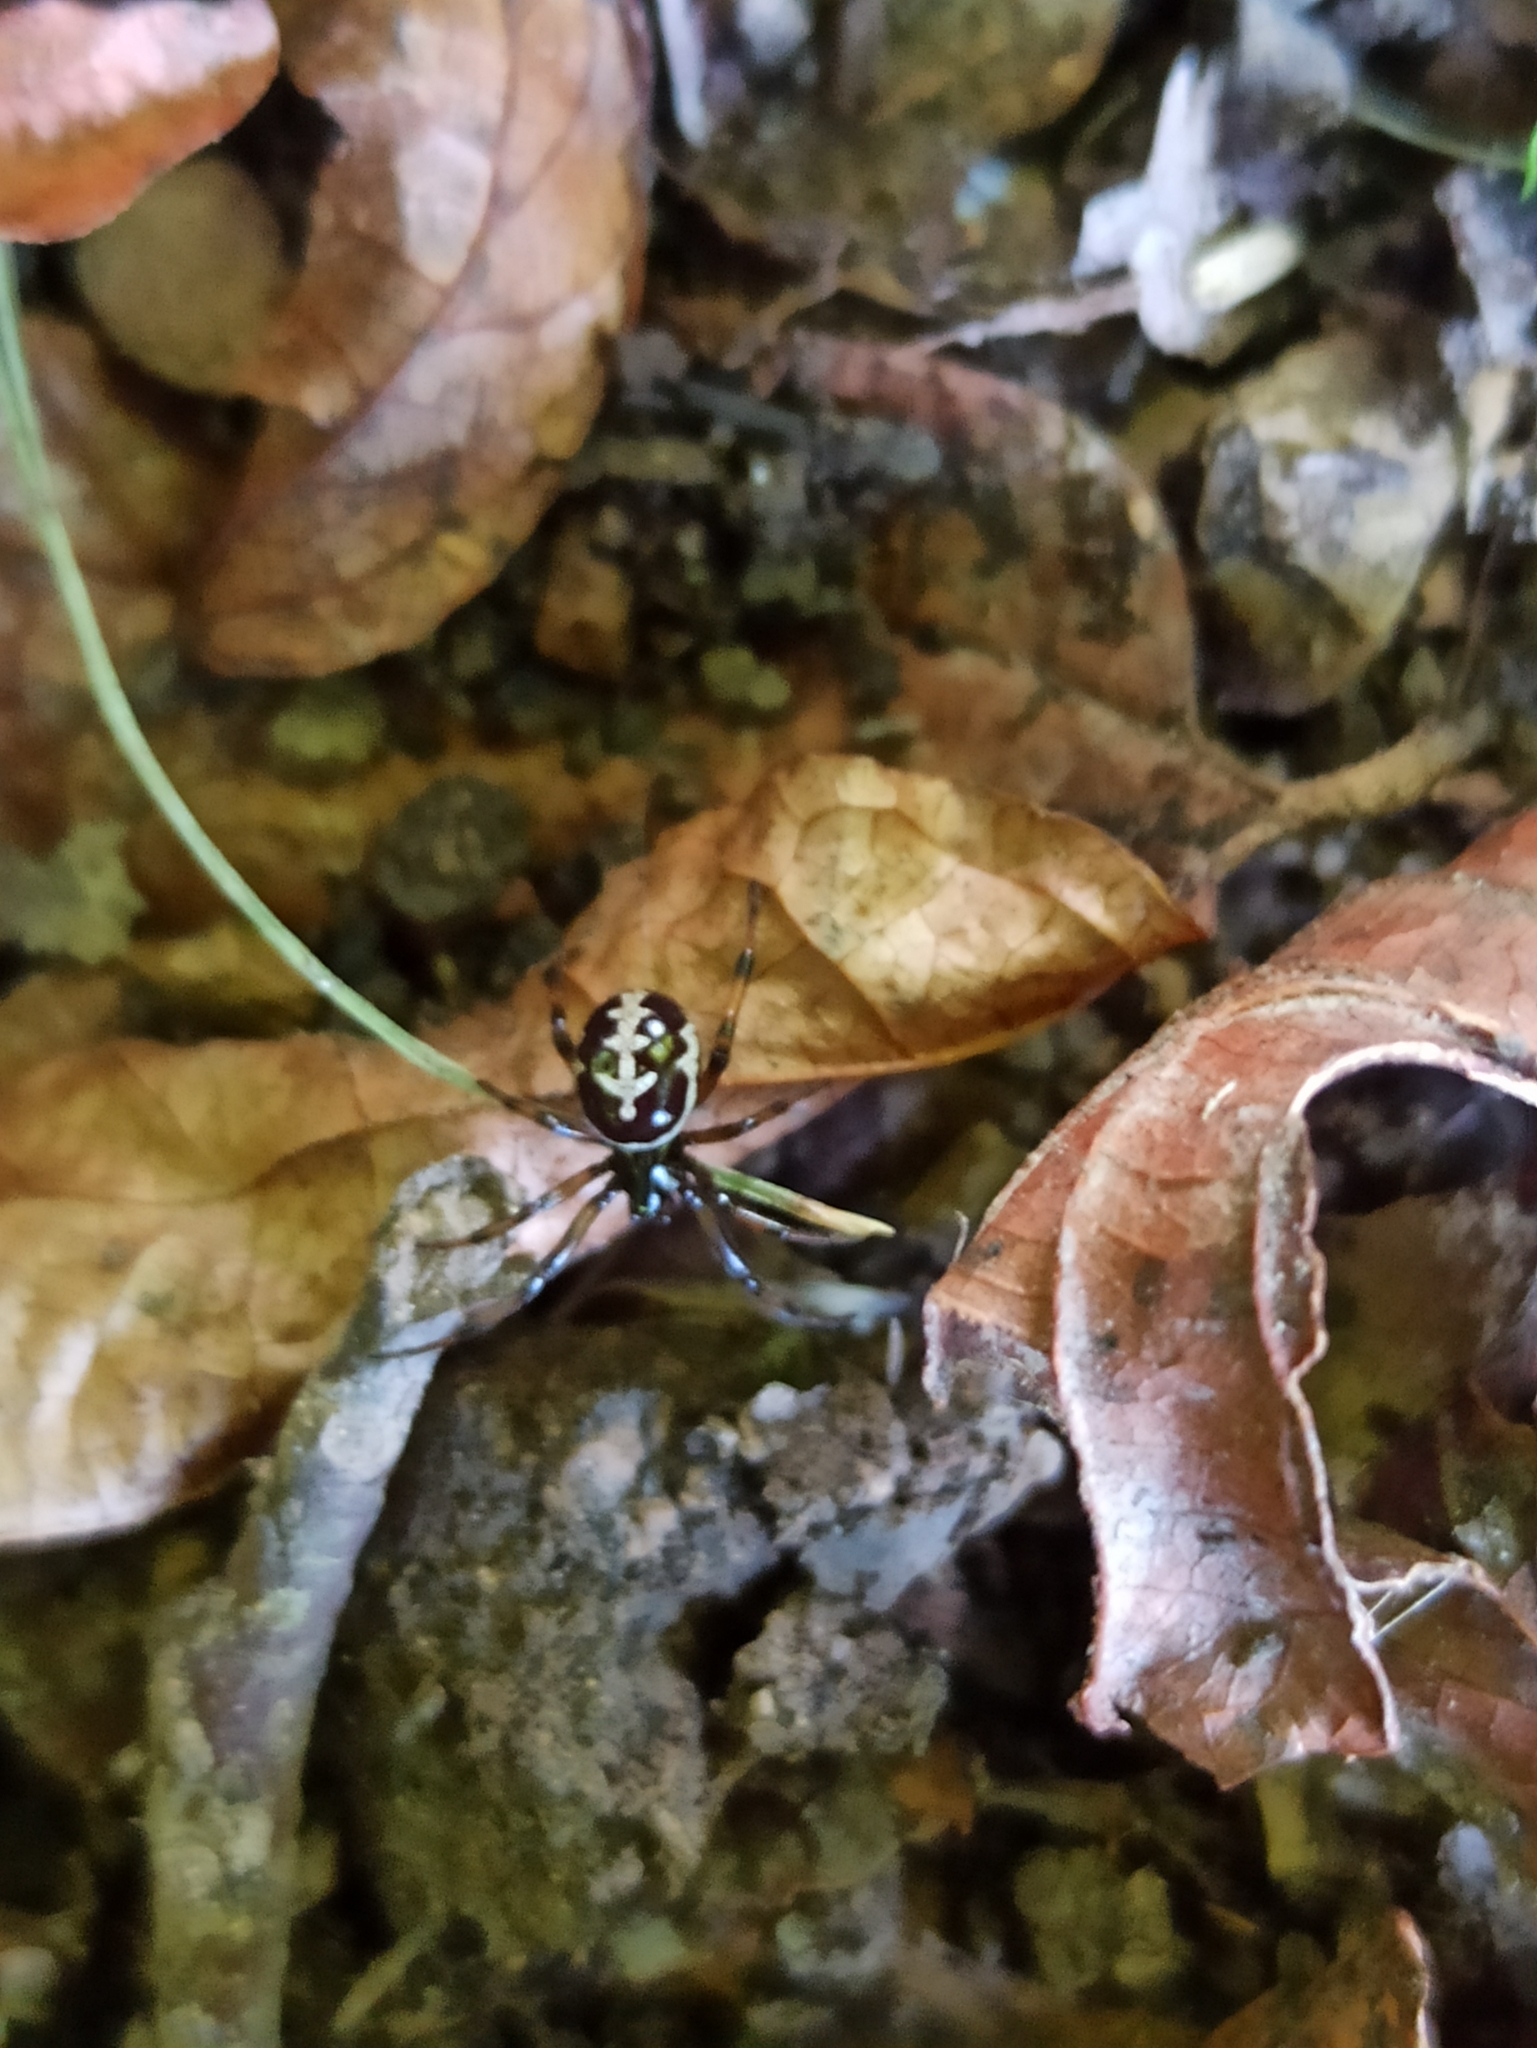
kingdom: Animalia
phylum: Arthropoda
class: Arachnida
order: Araneae
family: Theridiidae
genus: Steatoda
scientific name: Steatoda paykulliana
